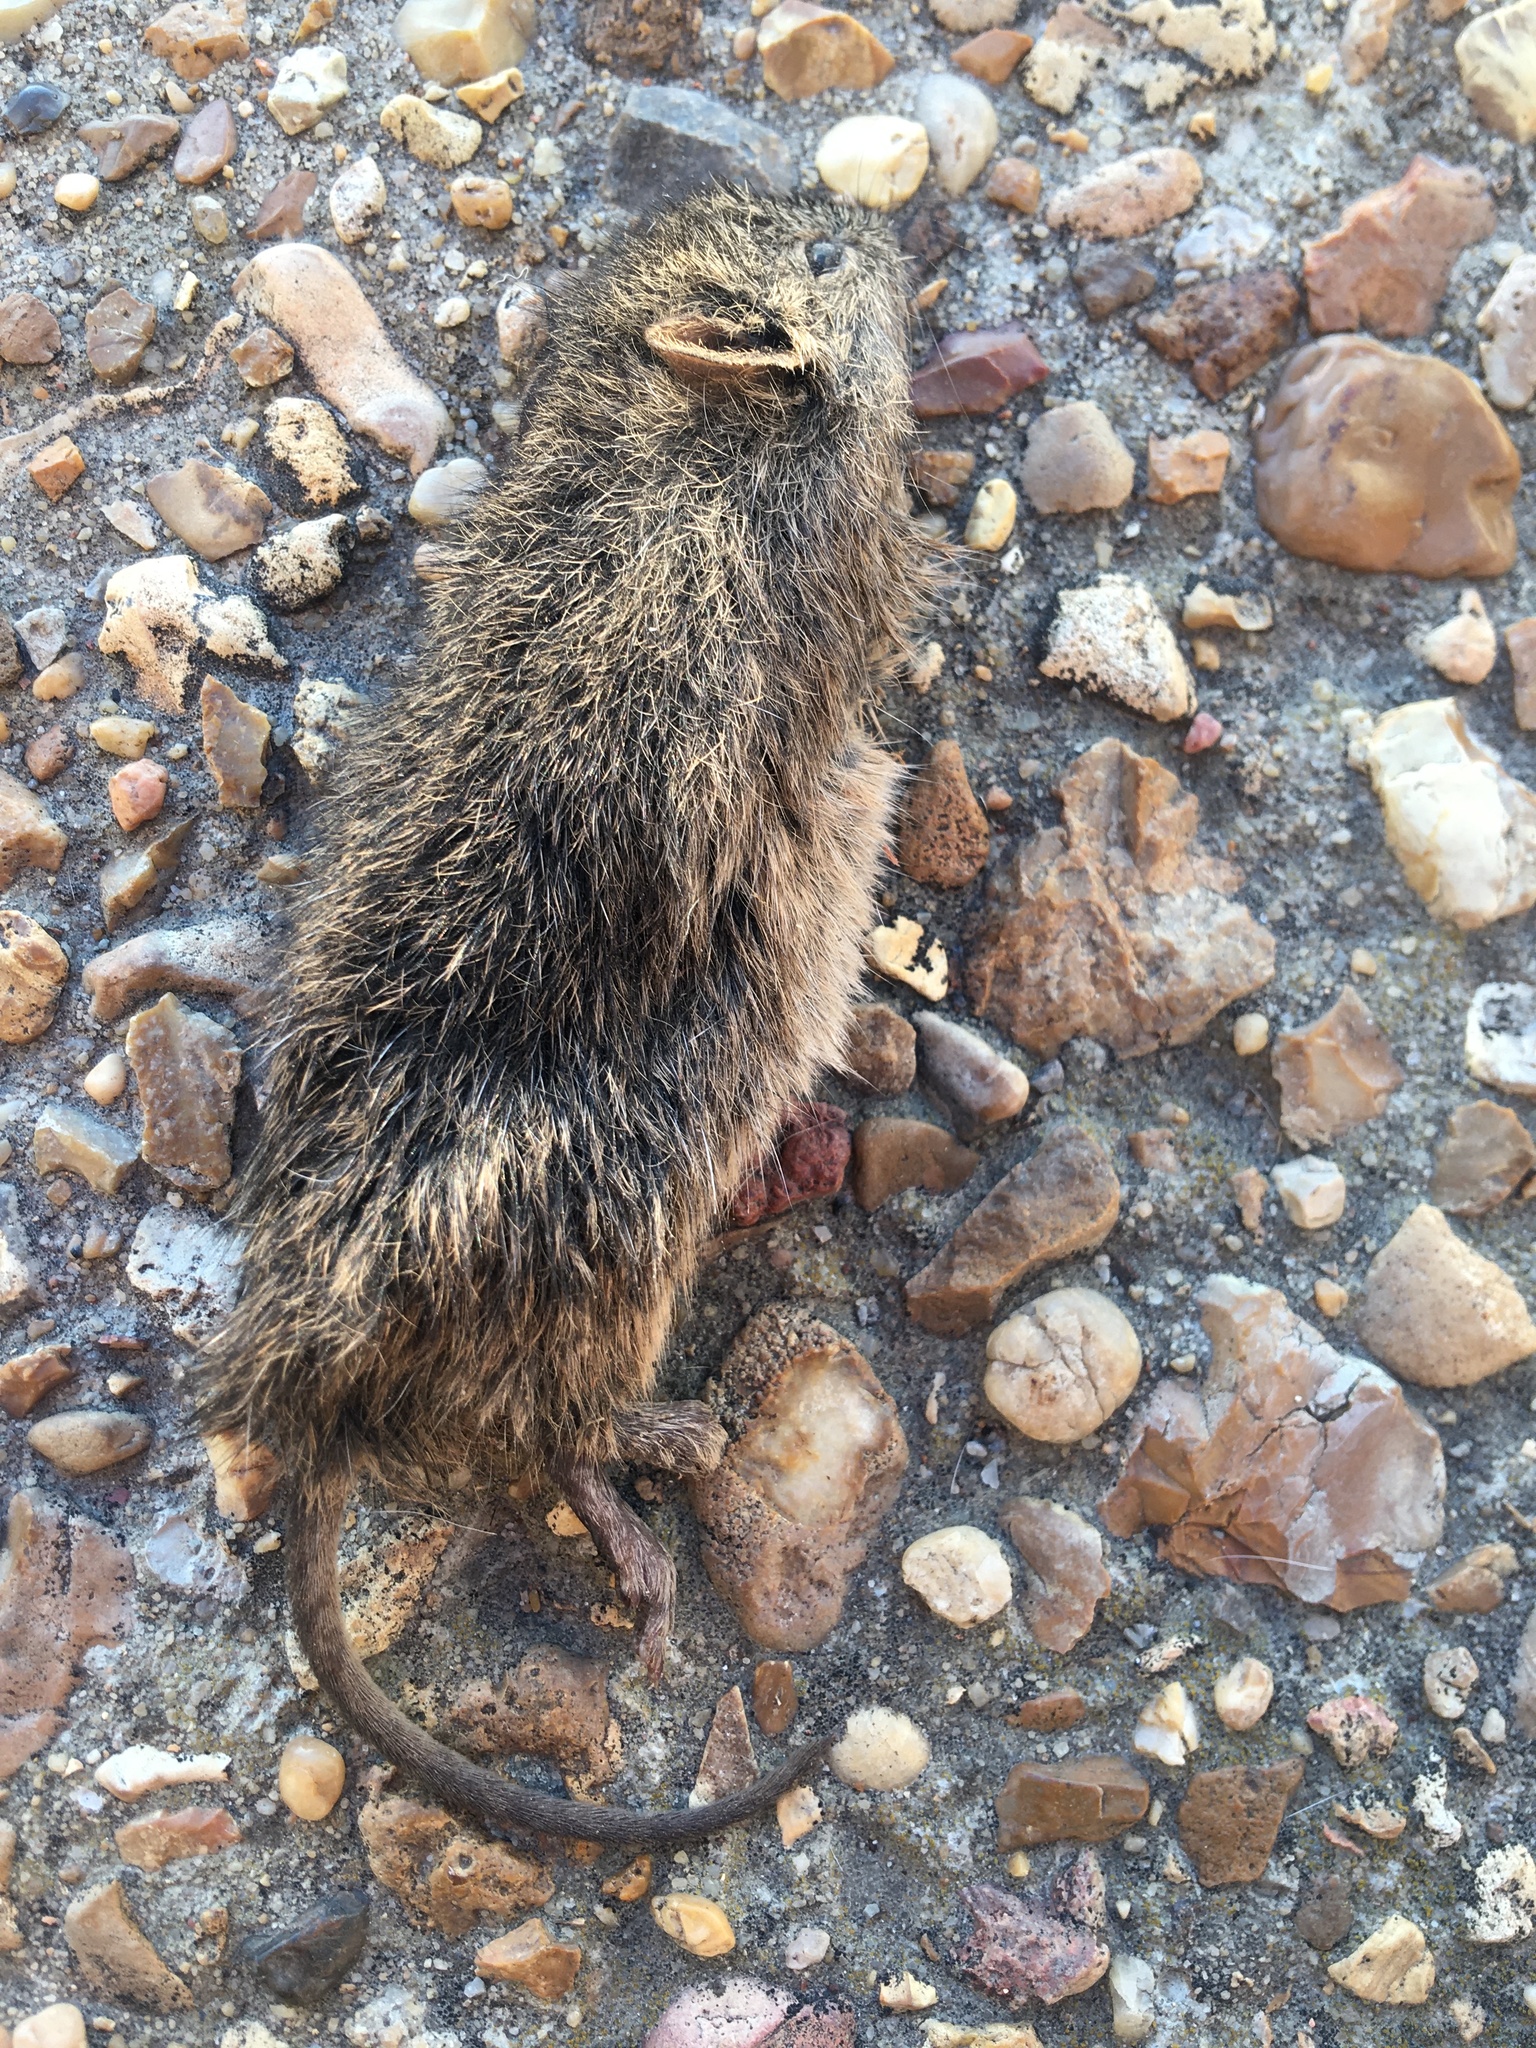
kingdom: Animalia
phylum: Chordata
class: Mammalia
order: Rodentia
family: Cricetidae
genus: Sigmodon
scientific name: Sigmodon hispidus
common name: Hispid cotton rat
